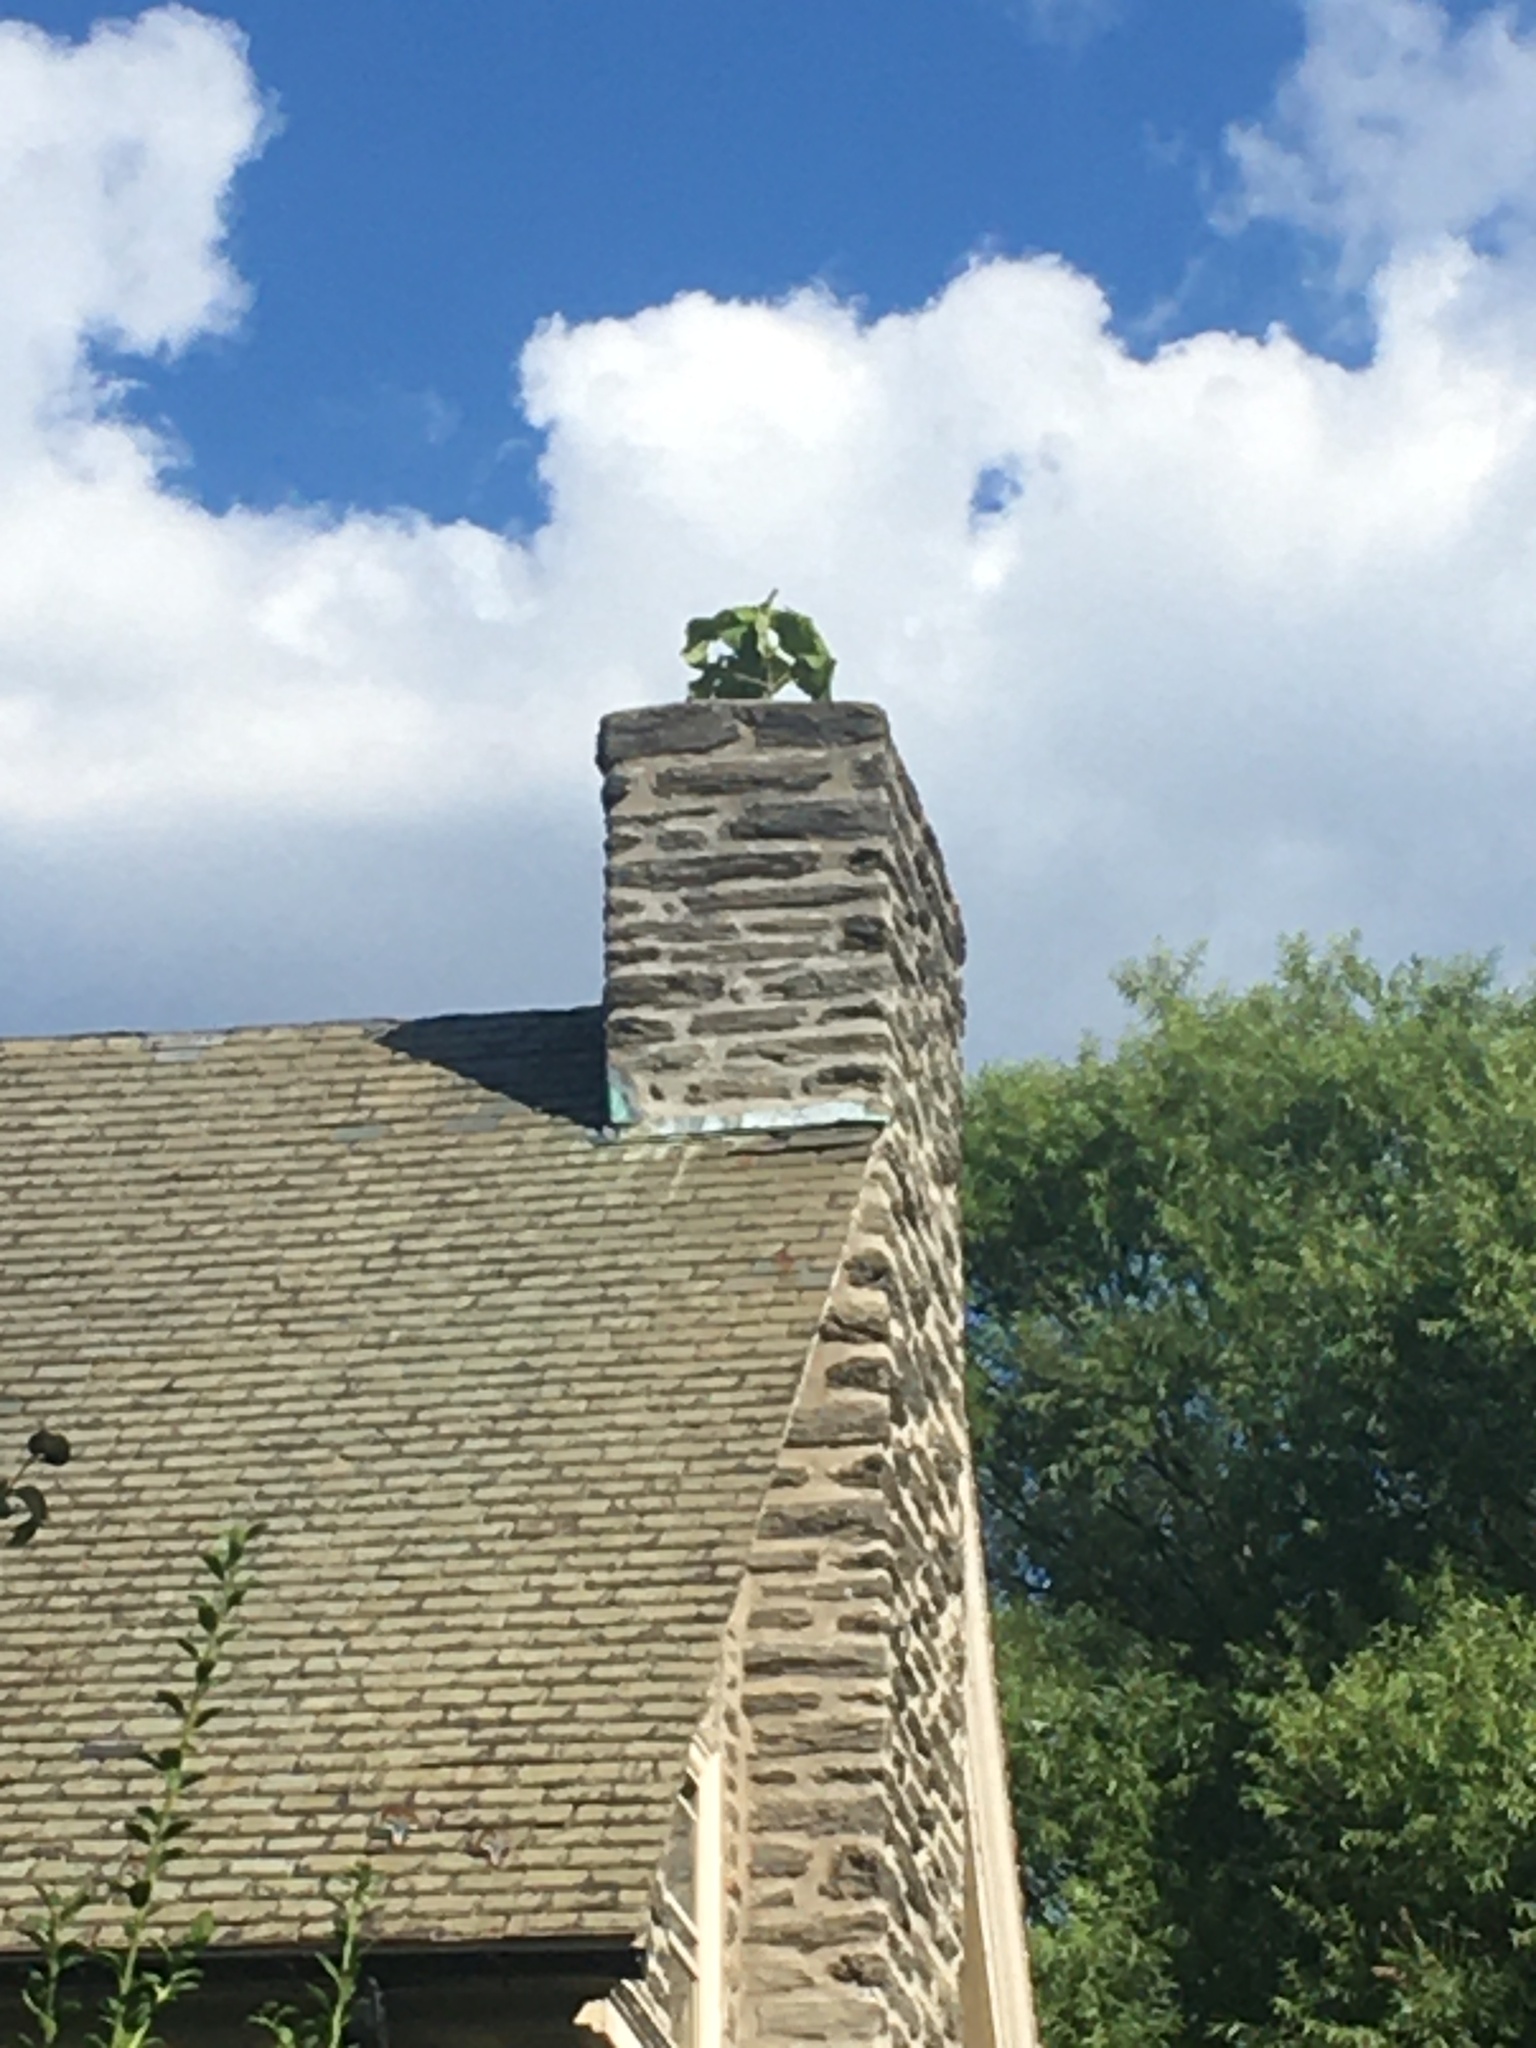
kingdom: Plantae
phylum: Tracheophyta
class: Magnoliopsida
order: Lamiales
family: Paulowniaceae
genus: Paulownia
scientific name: Paulownia tomentosa
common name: Foxglove-tree
